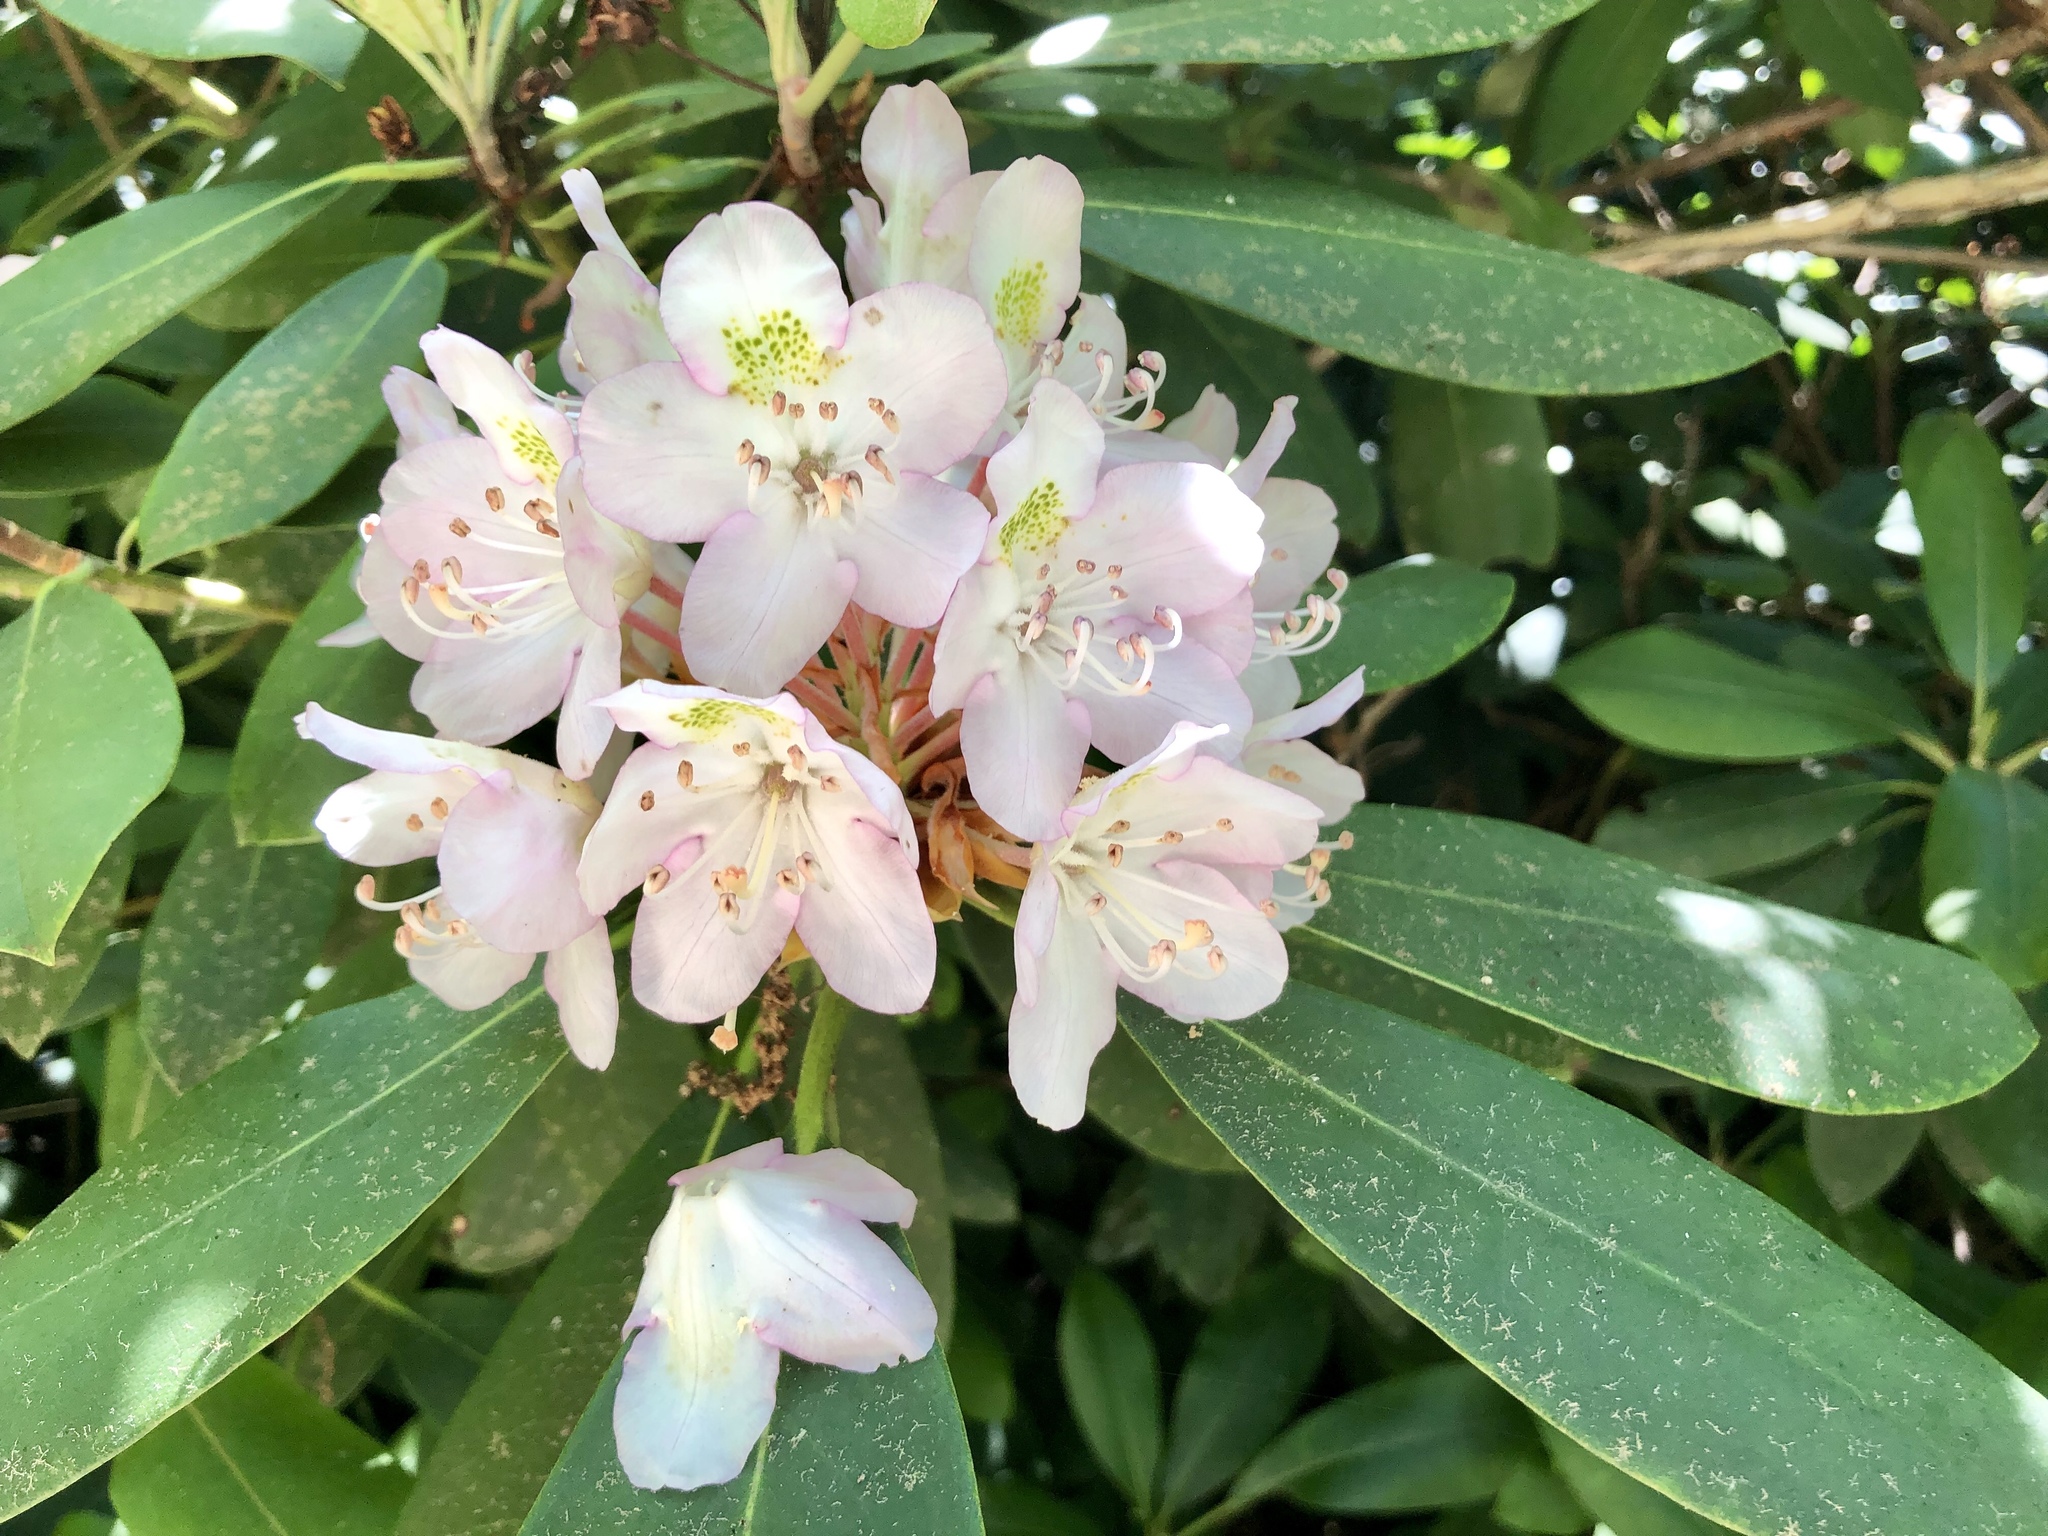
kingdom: Plantae
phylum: Tracheophyta
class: Magnoliopsida
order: Ericales
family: Ericaceae
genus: Rhododendron
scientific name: Rhododendron maximum
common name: Great rhododendron
